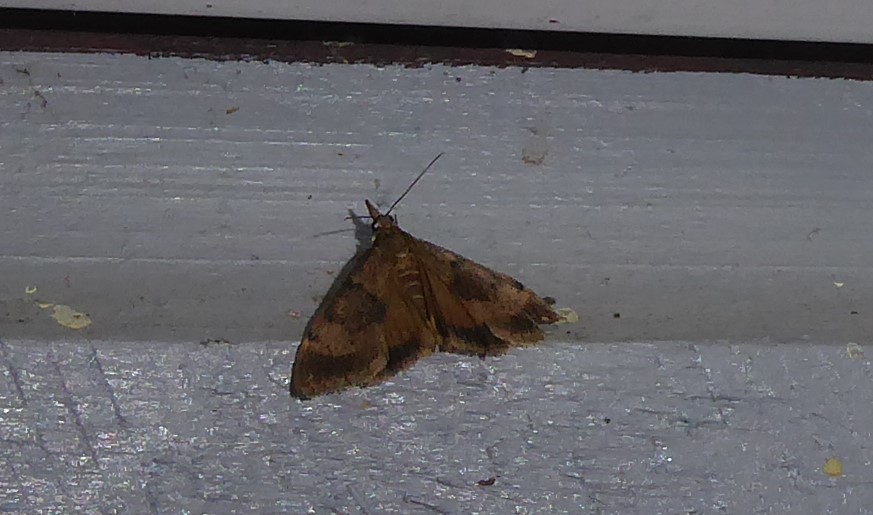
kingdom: Animalia
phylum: Arthropoda
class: Insecta
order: Lepidoptera
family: Crambidae
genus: Uresiphita
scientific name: Uresiphita
